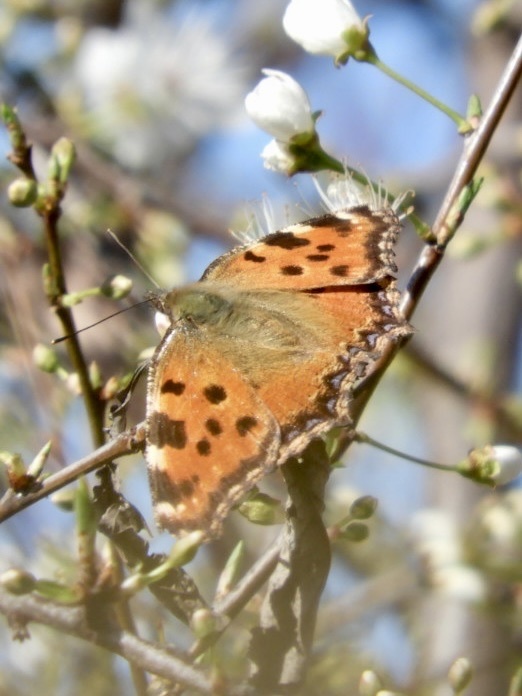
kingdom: Animalia
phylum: Arthropoda
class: Insecta
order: Lepidoptera
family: Nymphalidae
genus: Nymphalis
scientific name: Nymphalis polychloros
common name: Large tortoiseshell
